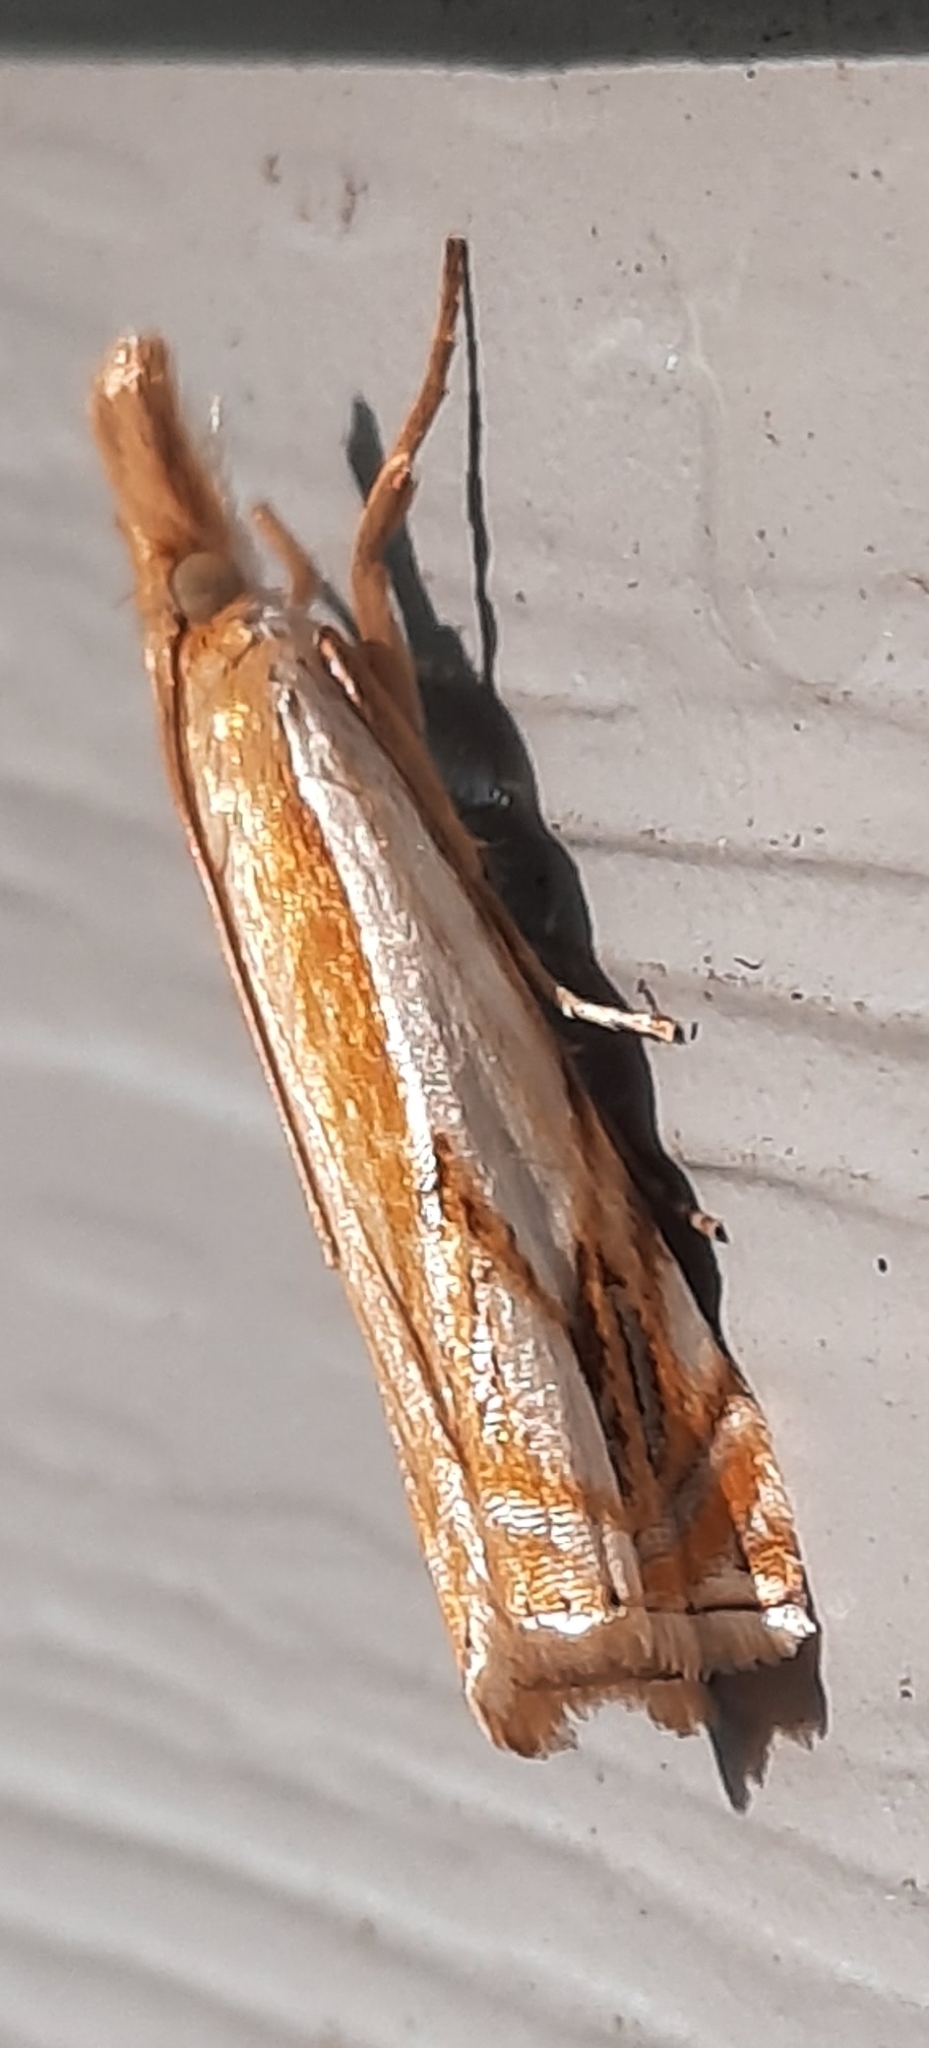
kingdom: Animalia
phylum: Arthropoda
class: Insecta
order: Lepidoptera
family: Crambidae
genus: Crambus
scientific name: Crambus agitatellus
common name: Double-banded grass-veneer
